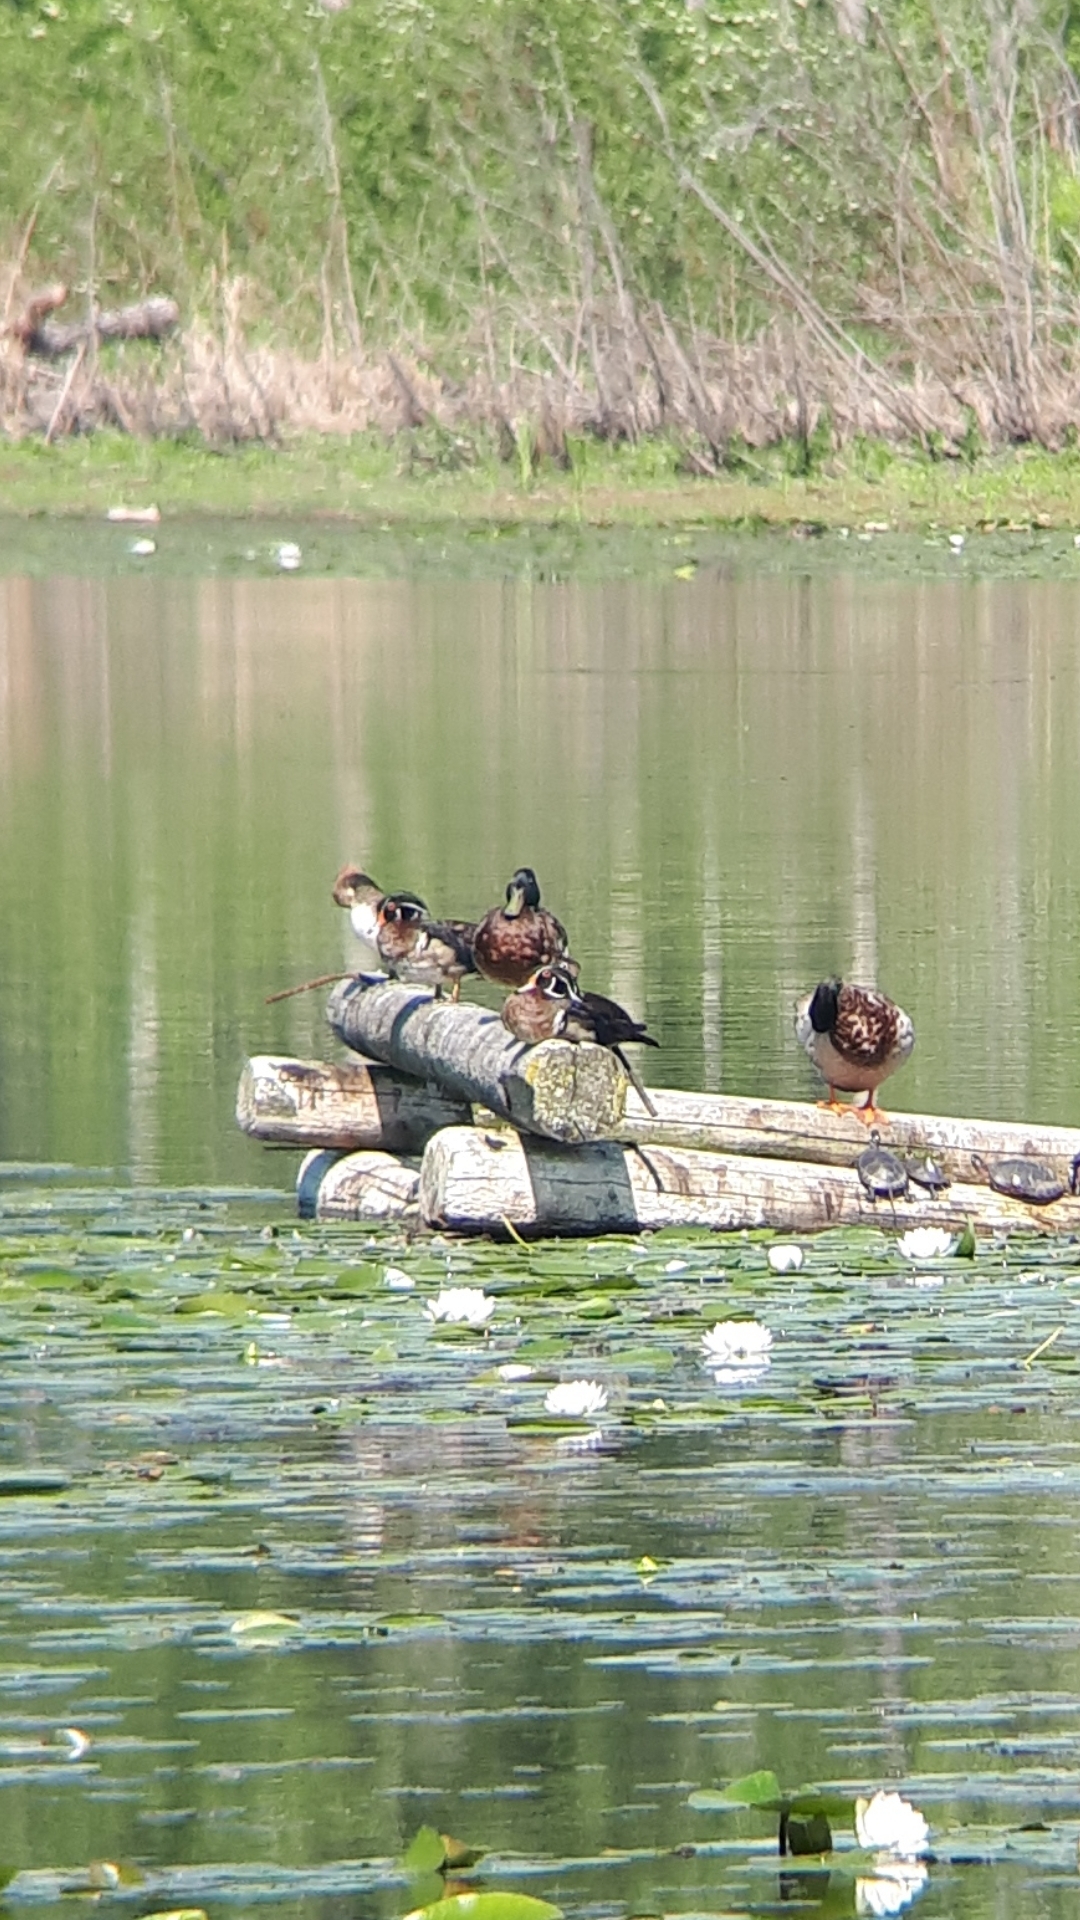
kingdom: Animalia
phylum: Chordata
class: Aves
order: Anseriformes
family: Anatidae
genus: Aix
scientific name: Aix sponsa
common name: Wood duck
